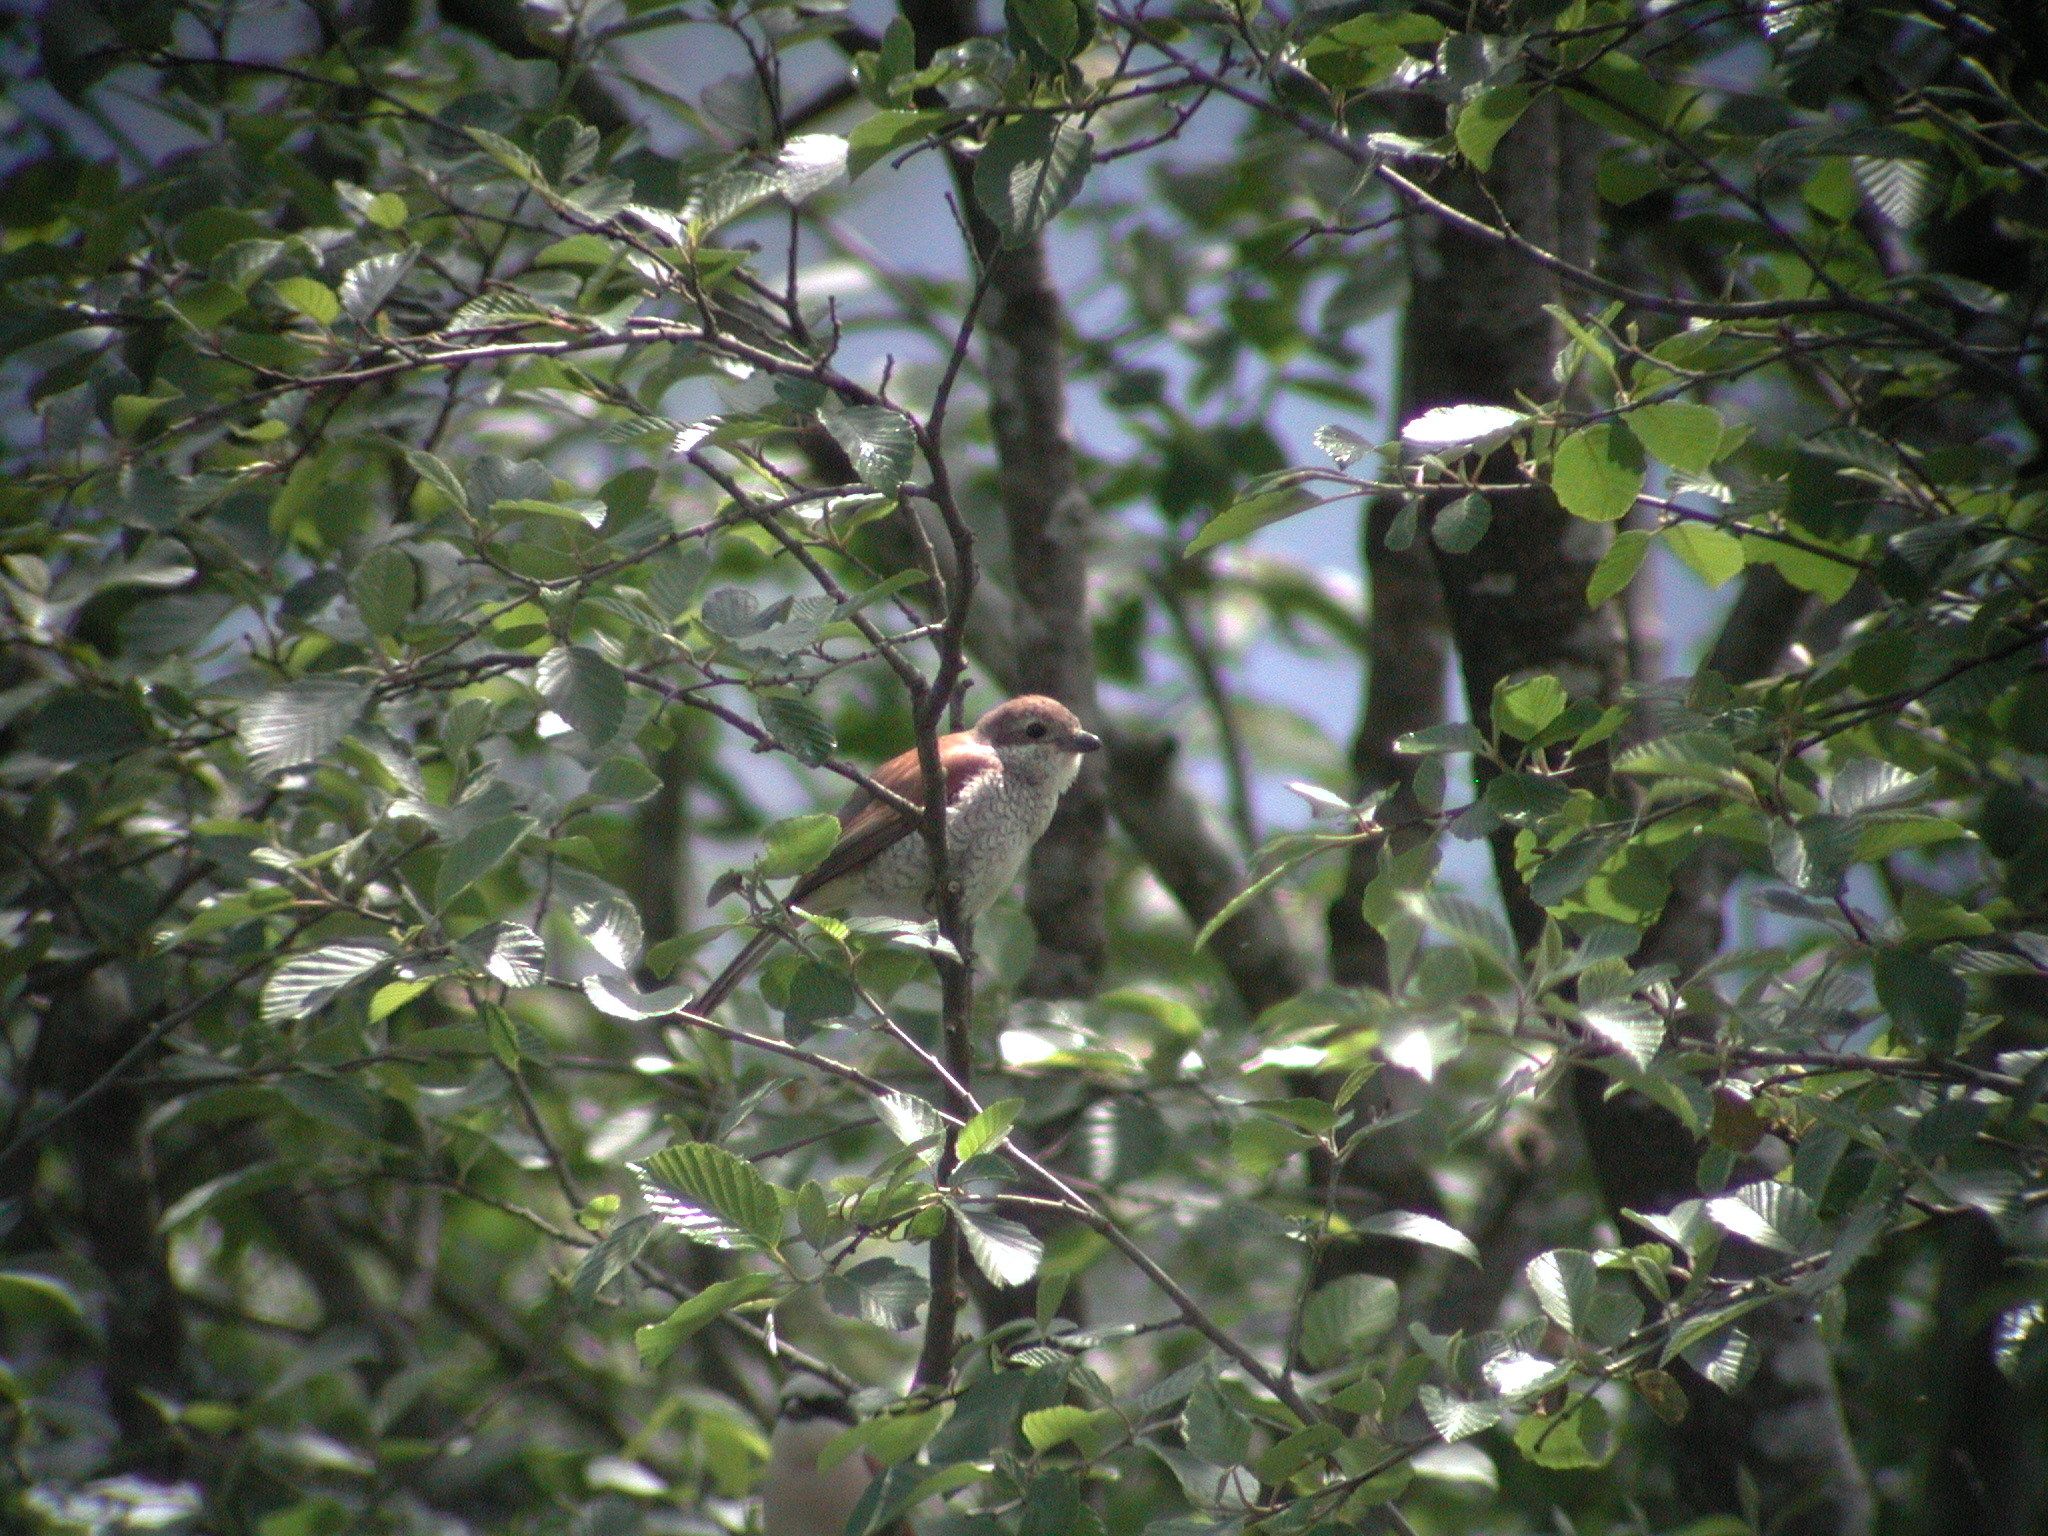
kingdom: Animalia
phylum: Chordata
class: Aves
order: Passeriformes
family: Laniidae
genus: Lanius
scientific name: Lanius collurio
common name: Red-backed shrike
